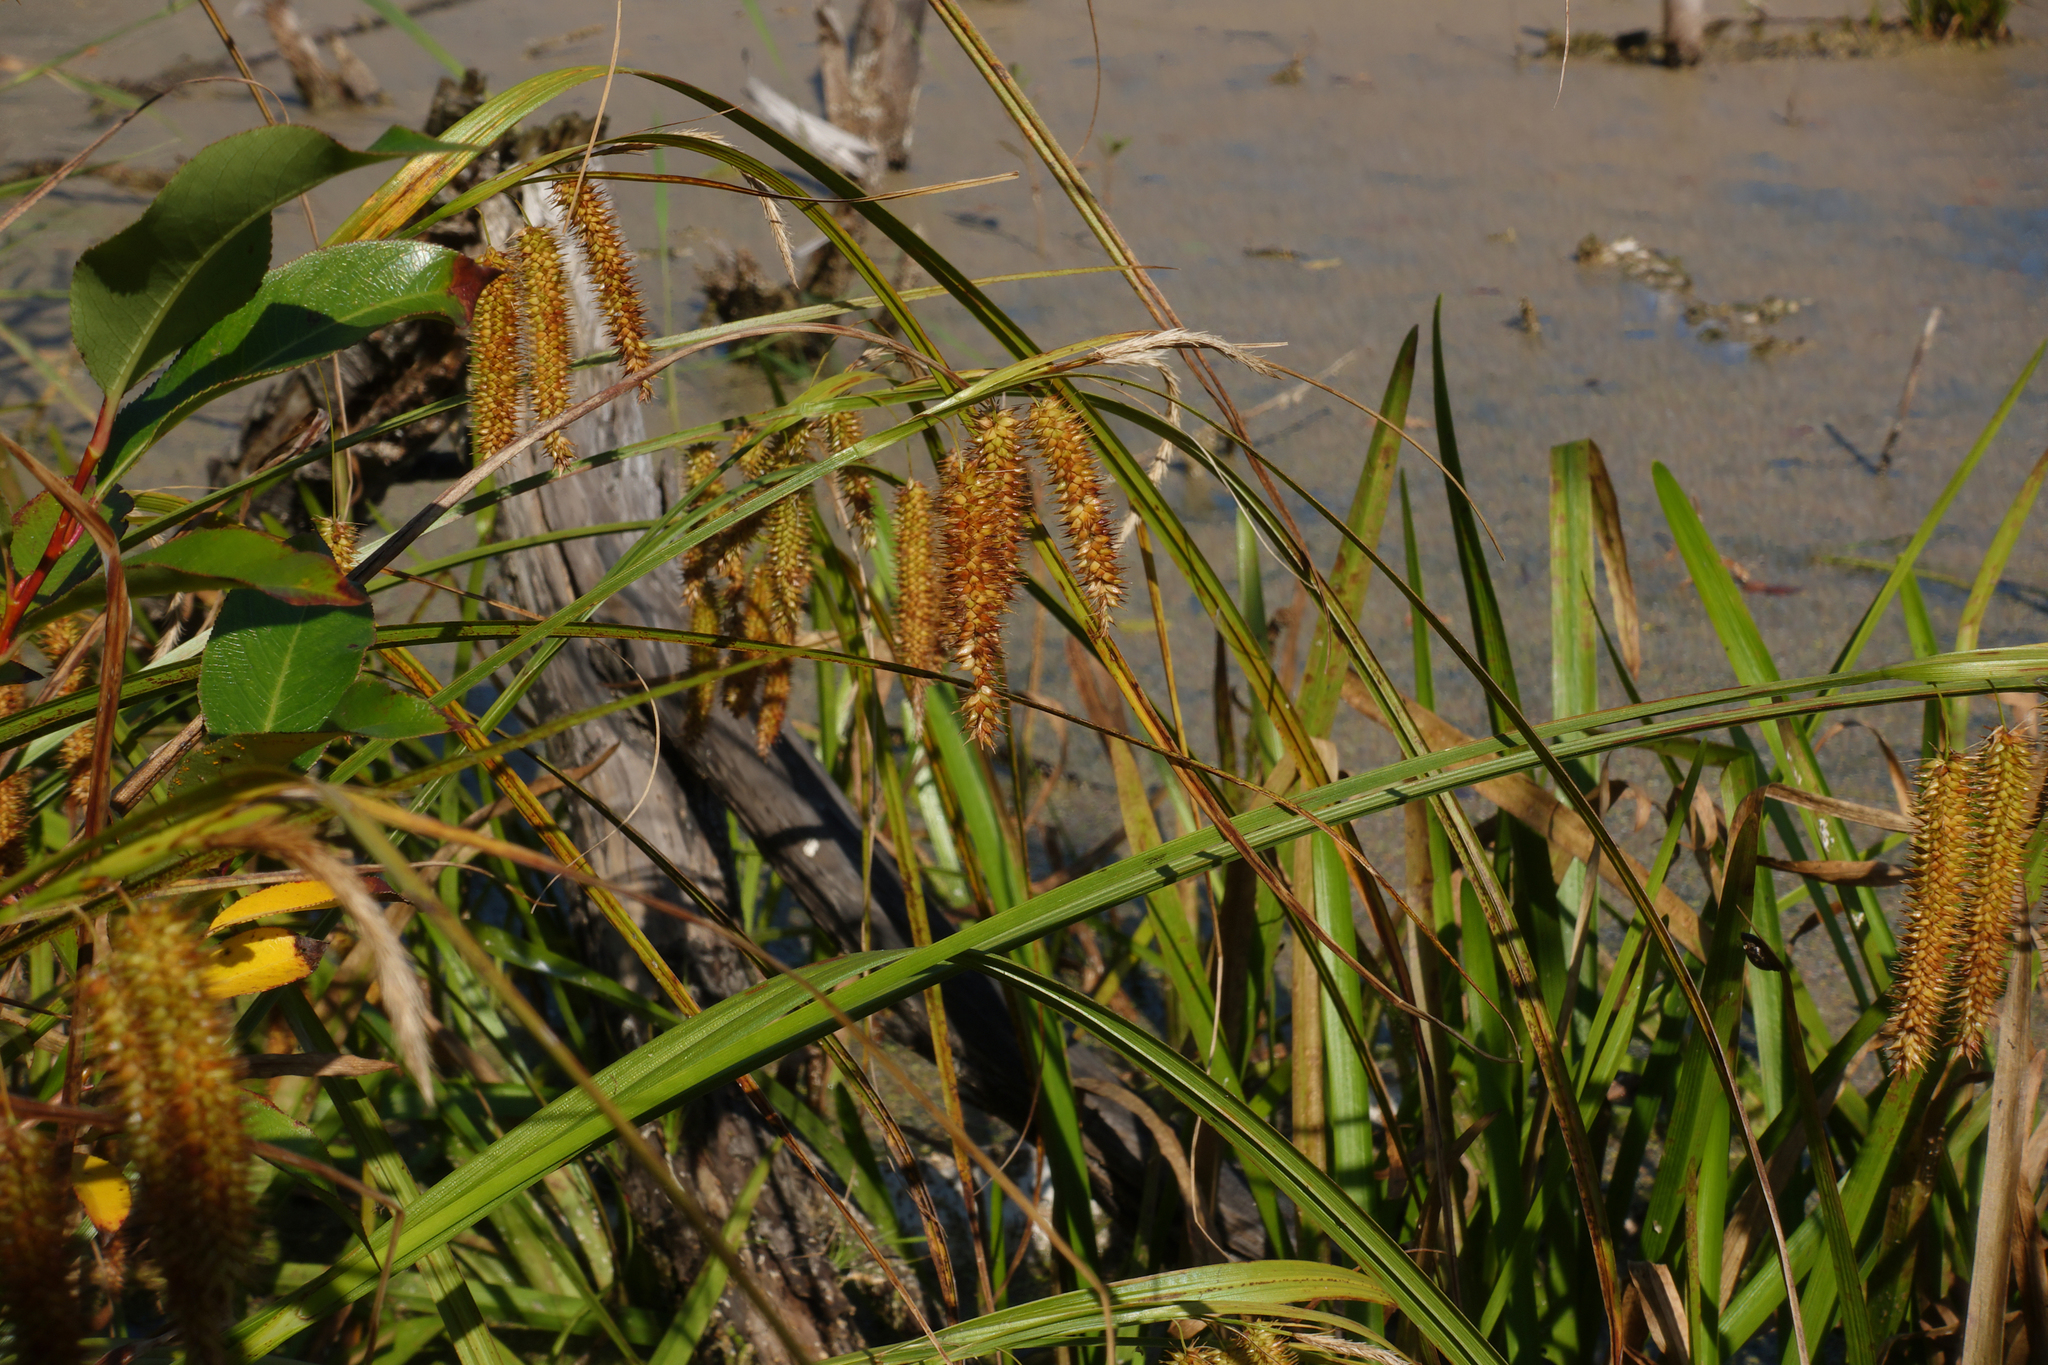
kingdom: Plantae
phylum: Tracheophyta
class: Liliopsida
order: Poales
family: Cyperaceae
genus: Carex
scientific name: Carex pseudocyperus
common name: Cyperus sedge
